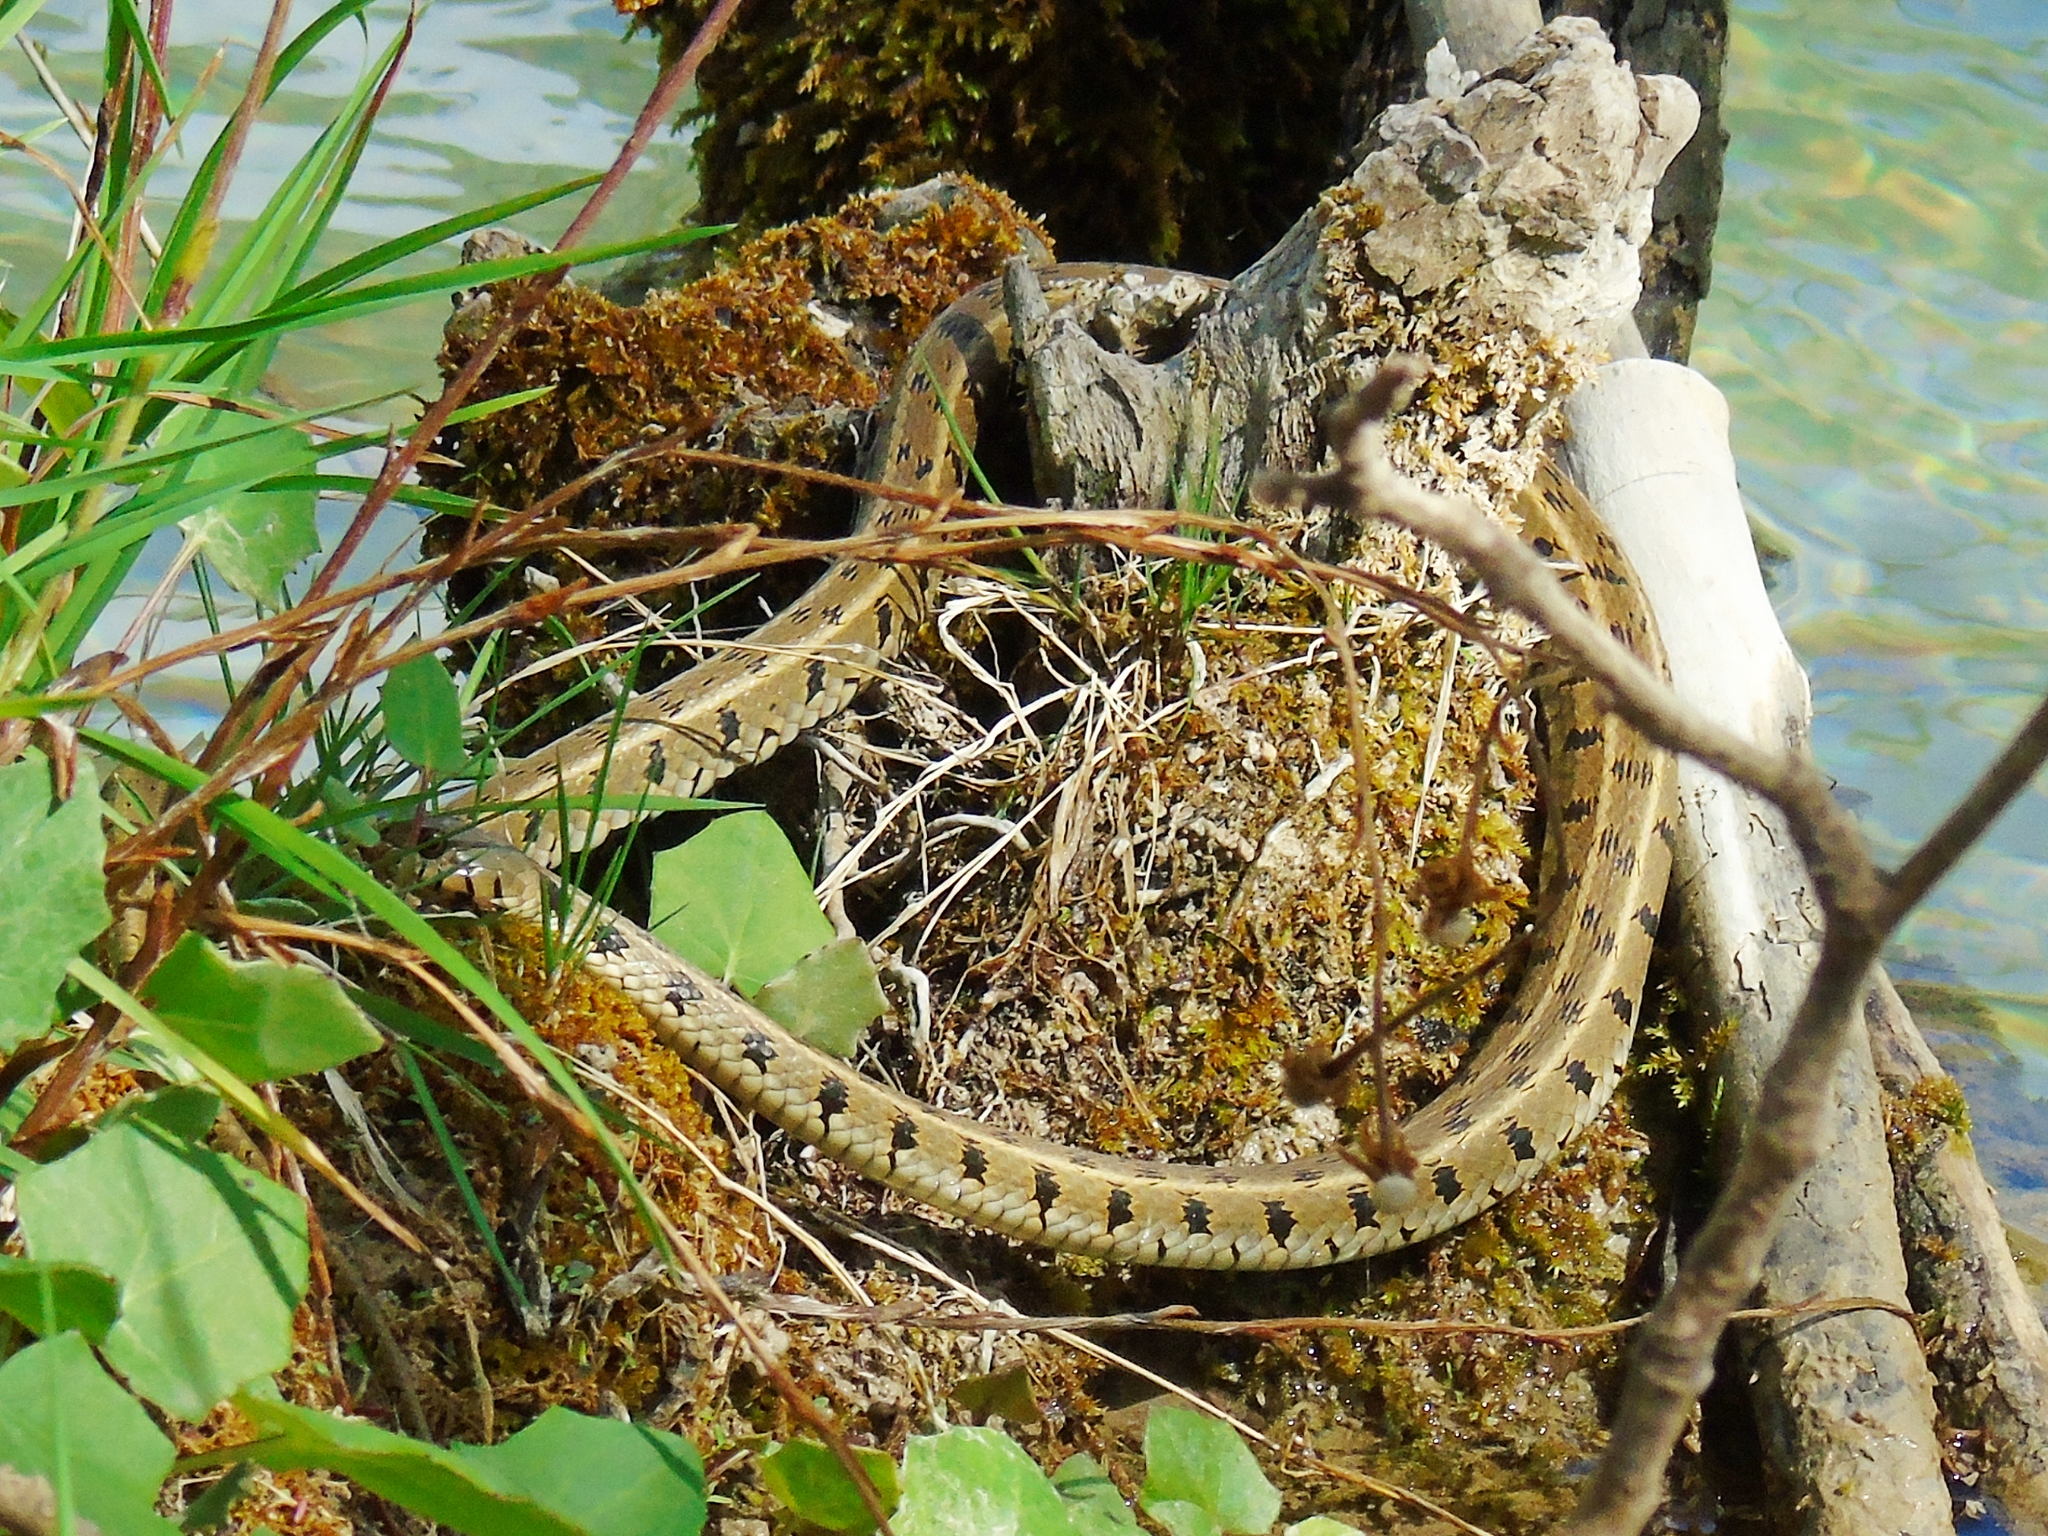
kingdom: Animalia
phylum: Chordata
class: Squamata
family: Colubridae
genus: Natrix
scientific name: Natrix natrix
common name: Grass snake
